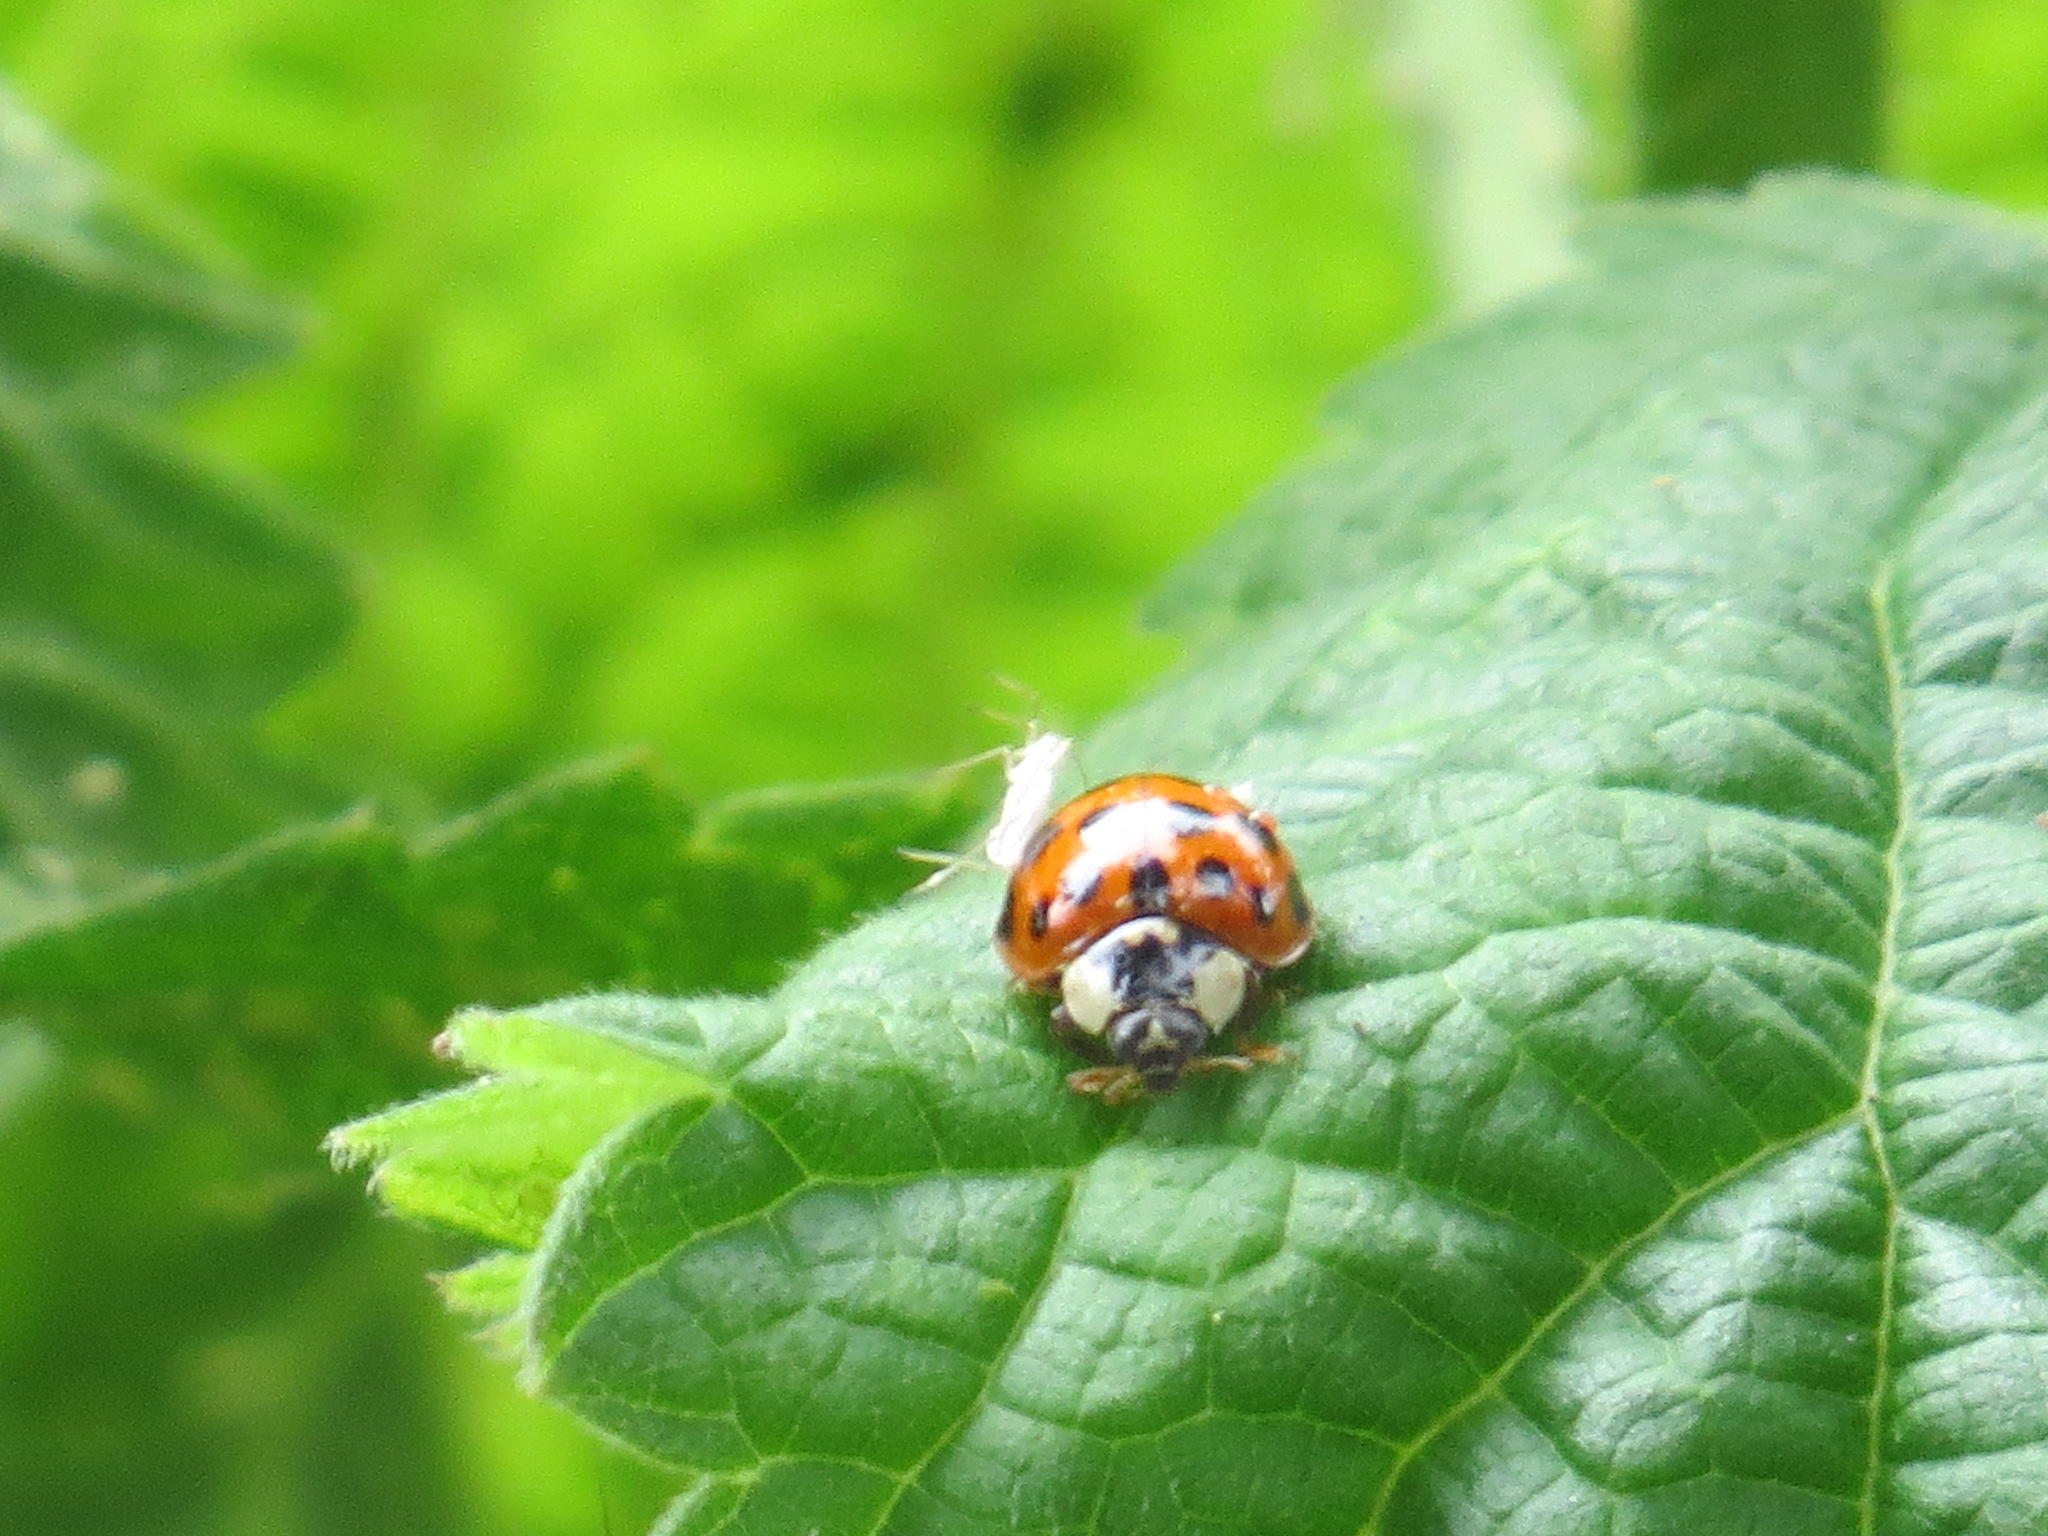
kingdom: Animalia
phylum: Arthropoda
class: Insecta
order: Coleoptera
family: Coccinellidae
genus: Harmonia
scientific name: Harmonia axyridis
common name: Harlequin ladybird
